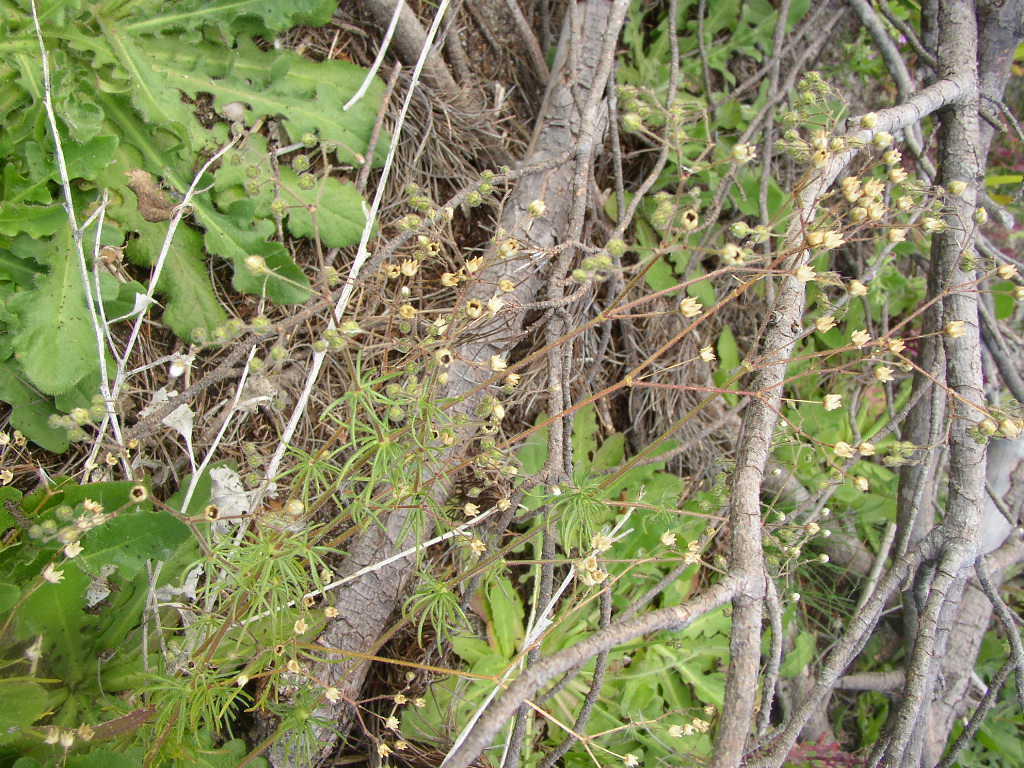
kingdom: Plantae
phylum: Tracheophyta
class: Magnoliopsida
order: Caryophyllales
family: Caryophyllaceae
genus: Spergula
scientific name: Spergula arvensis
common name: Corn spurrey
